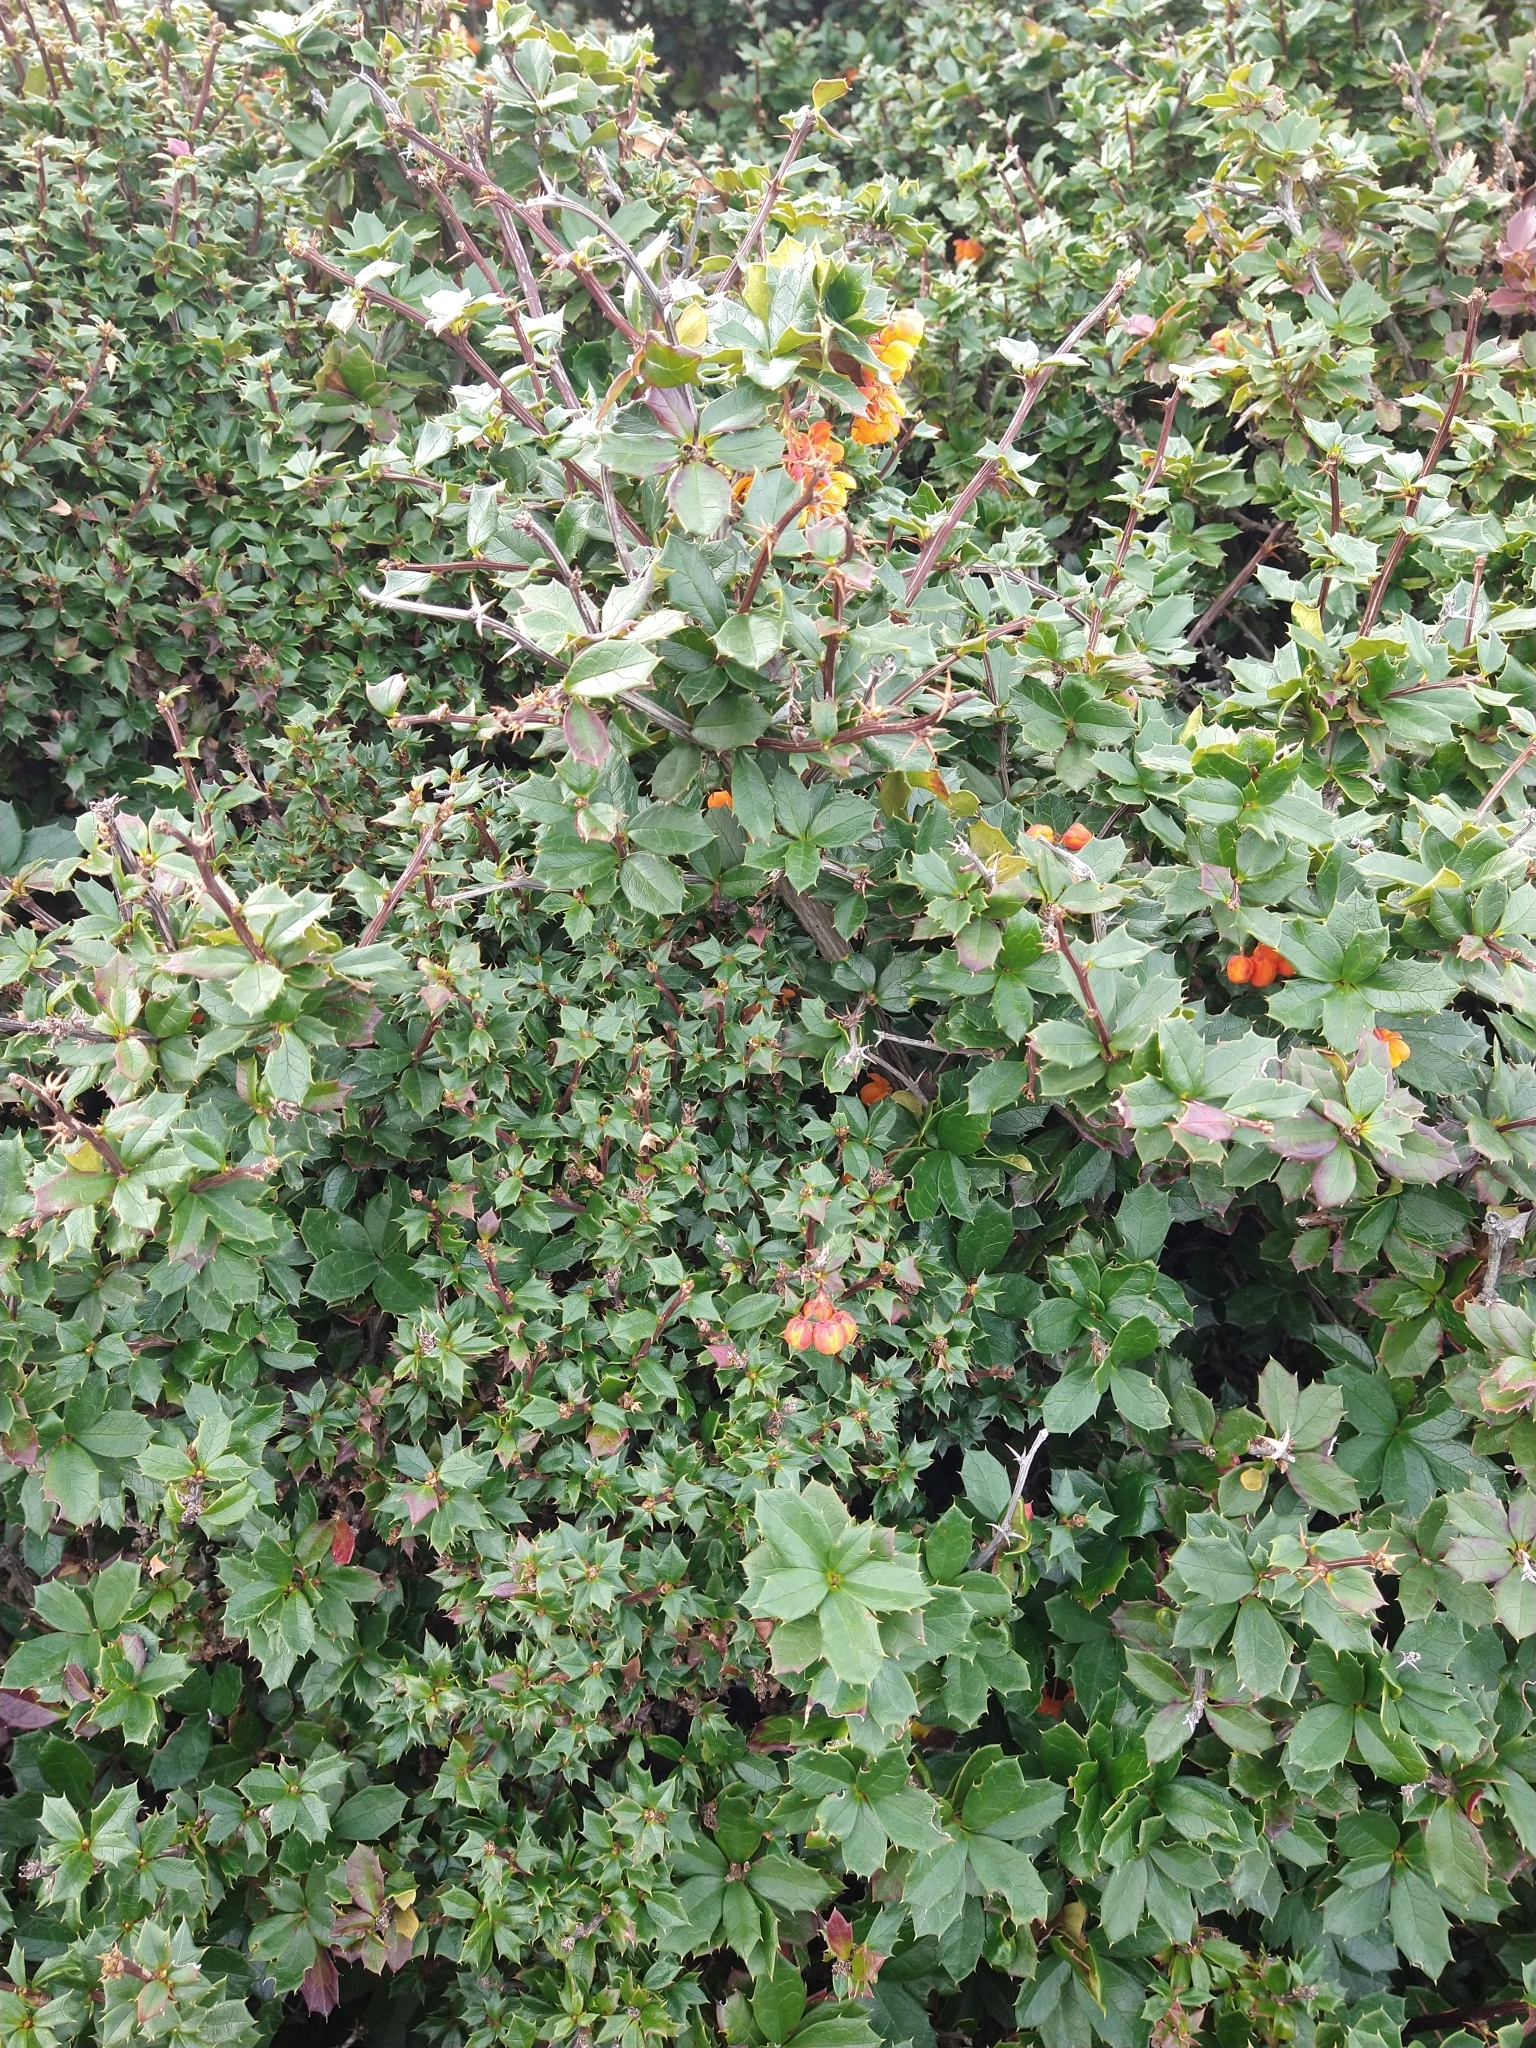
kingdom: Plantae
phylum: Tracheophyta
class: Magnoliopsida
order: Ranunculales
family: Berberidaceae
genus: Berberis
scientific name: Berberis ilicifolia
